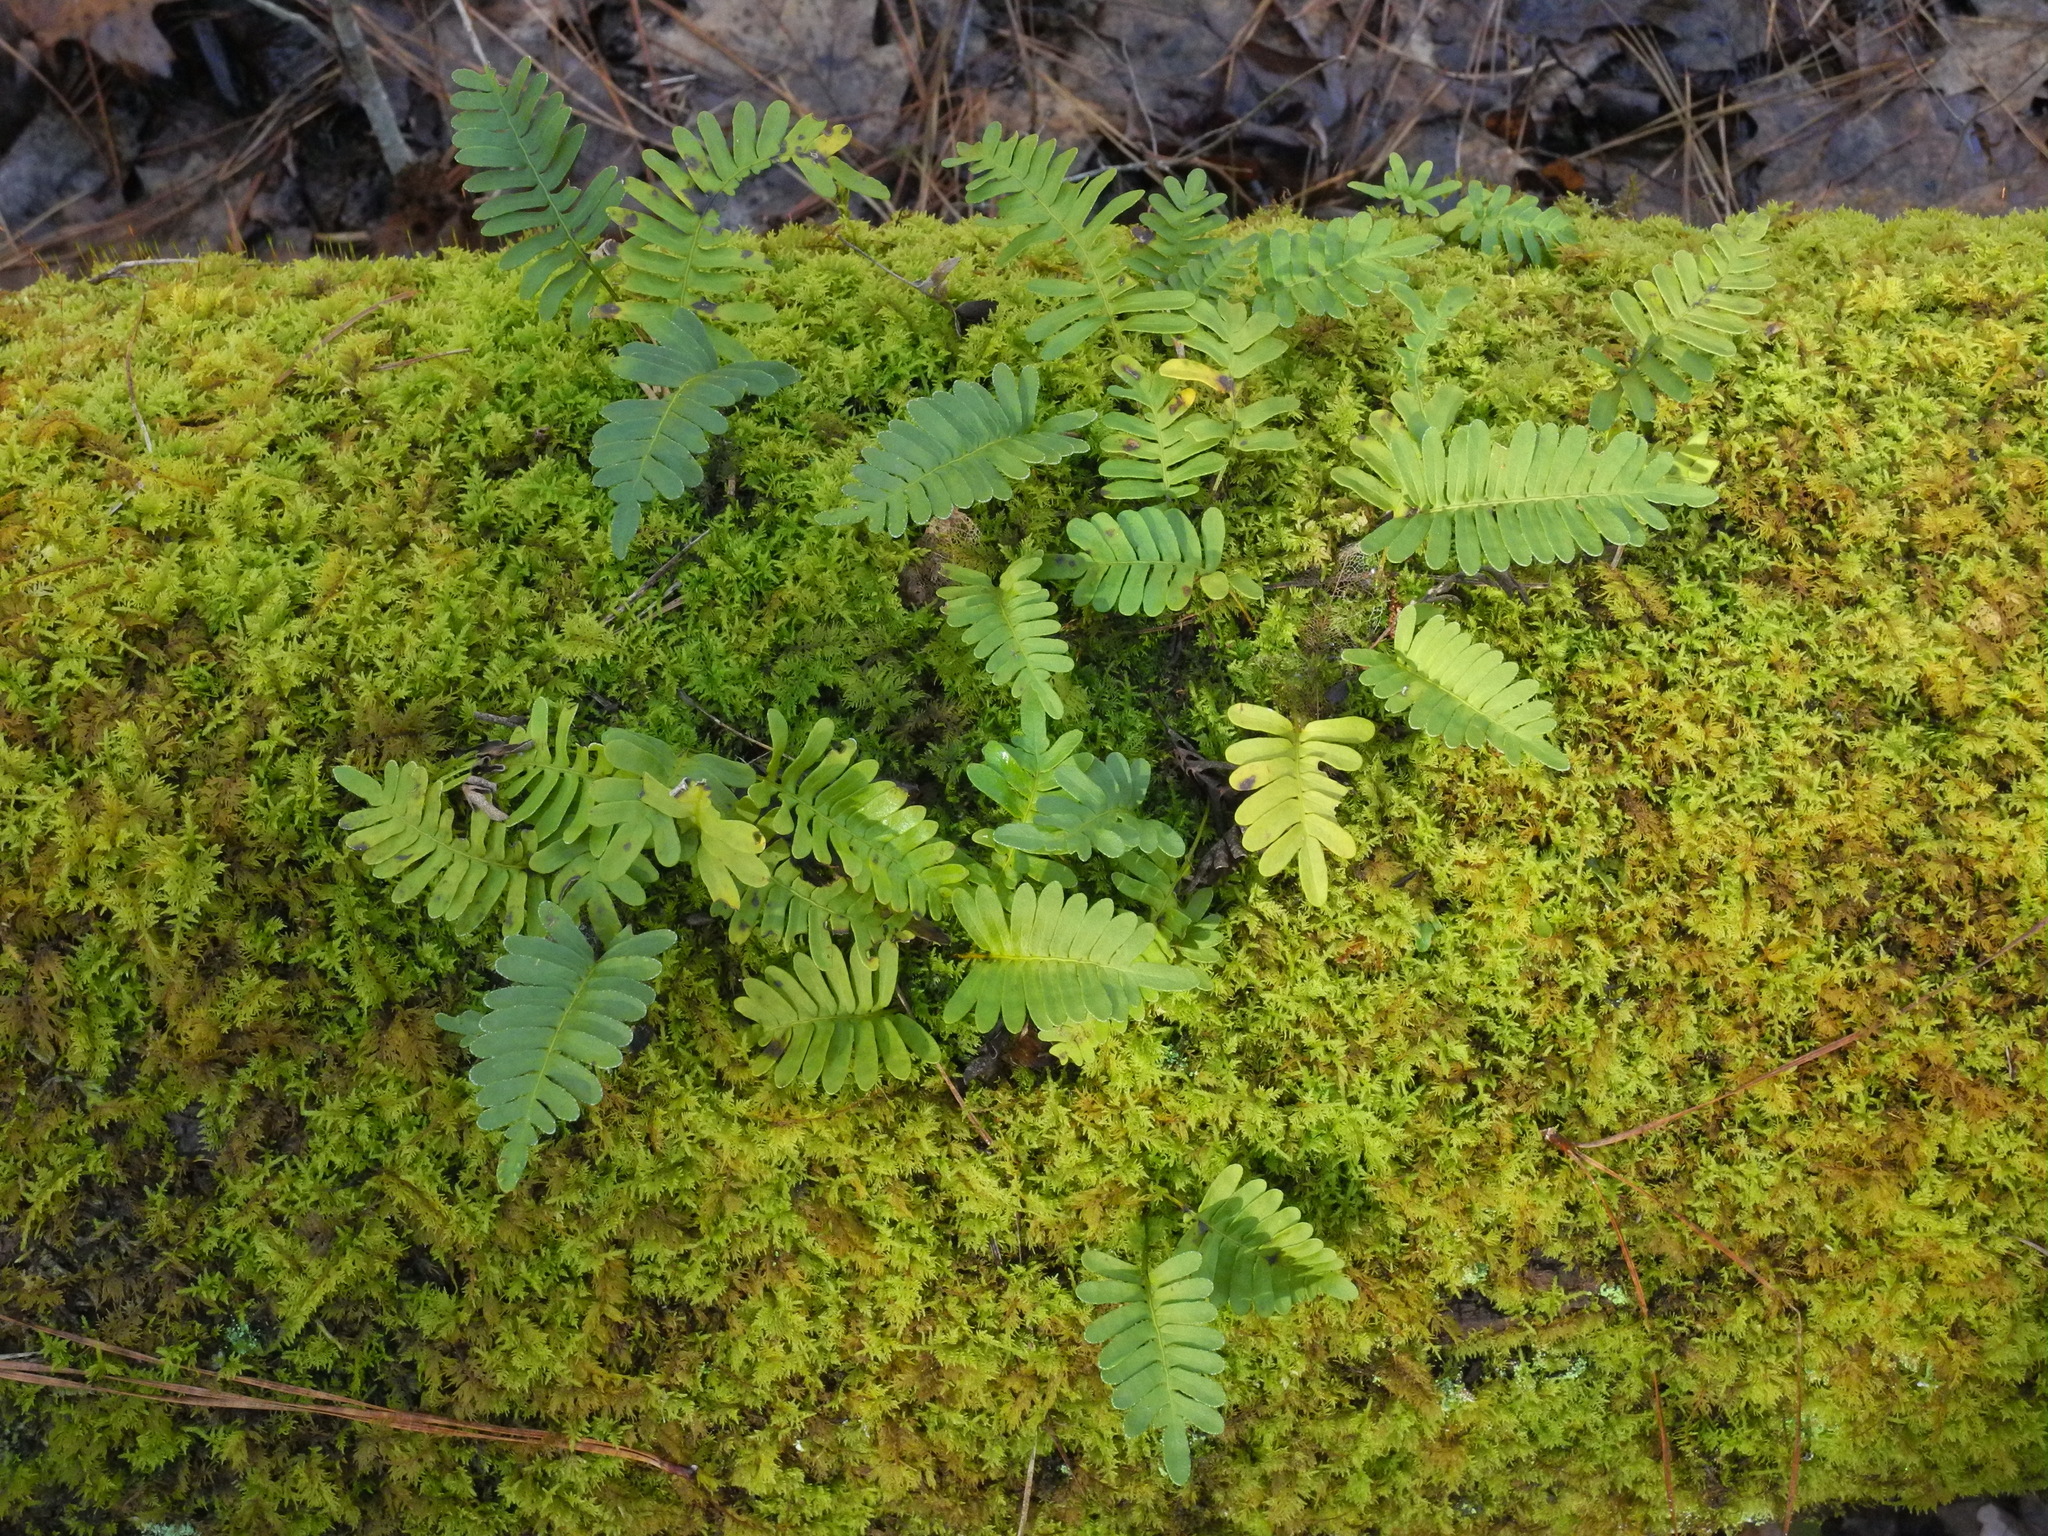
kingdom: Plantae
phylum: Tracheophyta
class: Polypodiopsida
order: Polypodiales
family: Polypodiaceae
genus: Pleopeltis
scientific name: Pleopeltis michauxiana
